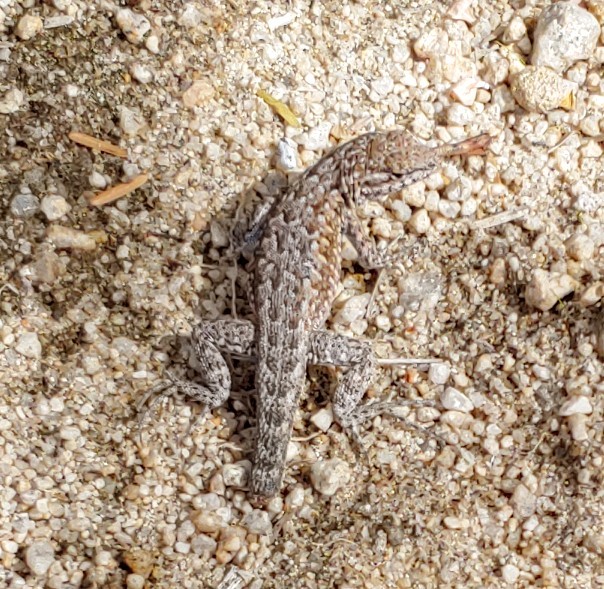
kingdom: Animalia
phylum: Chordata
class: Squamata
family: Phrynosomatidae
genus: Uta
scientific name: Uta stansburiana
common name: Side-blotched lizard
